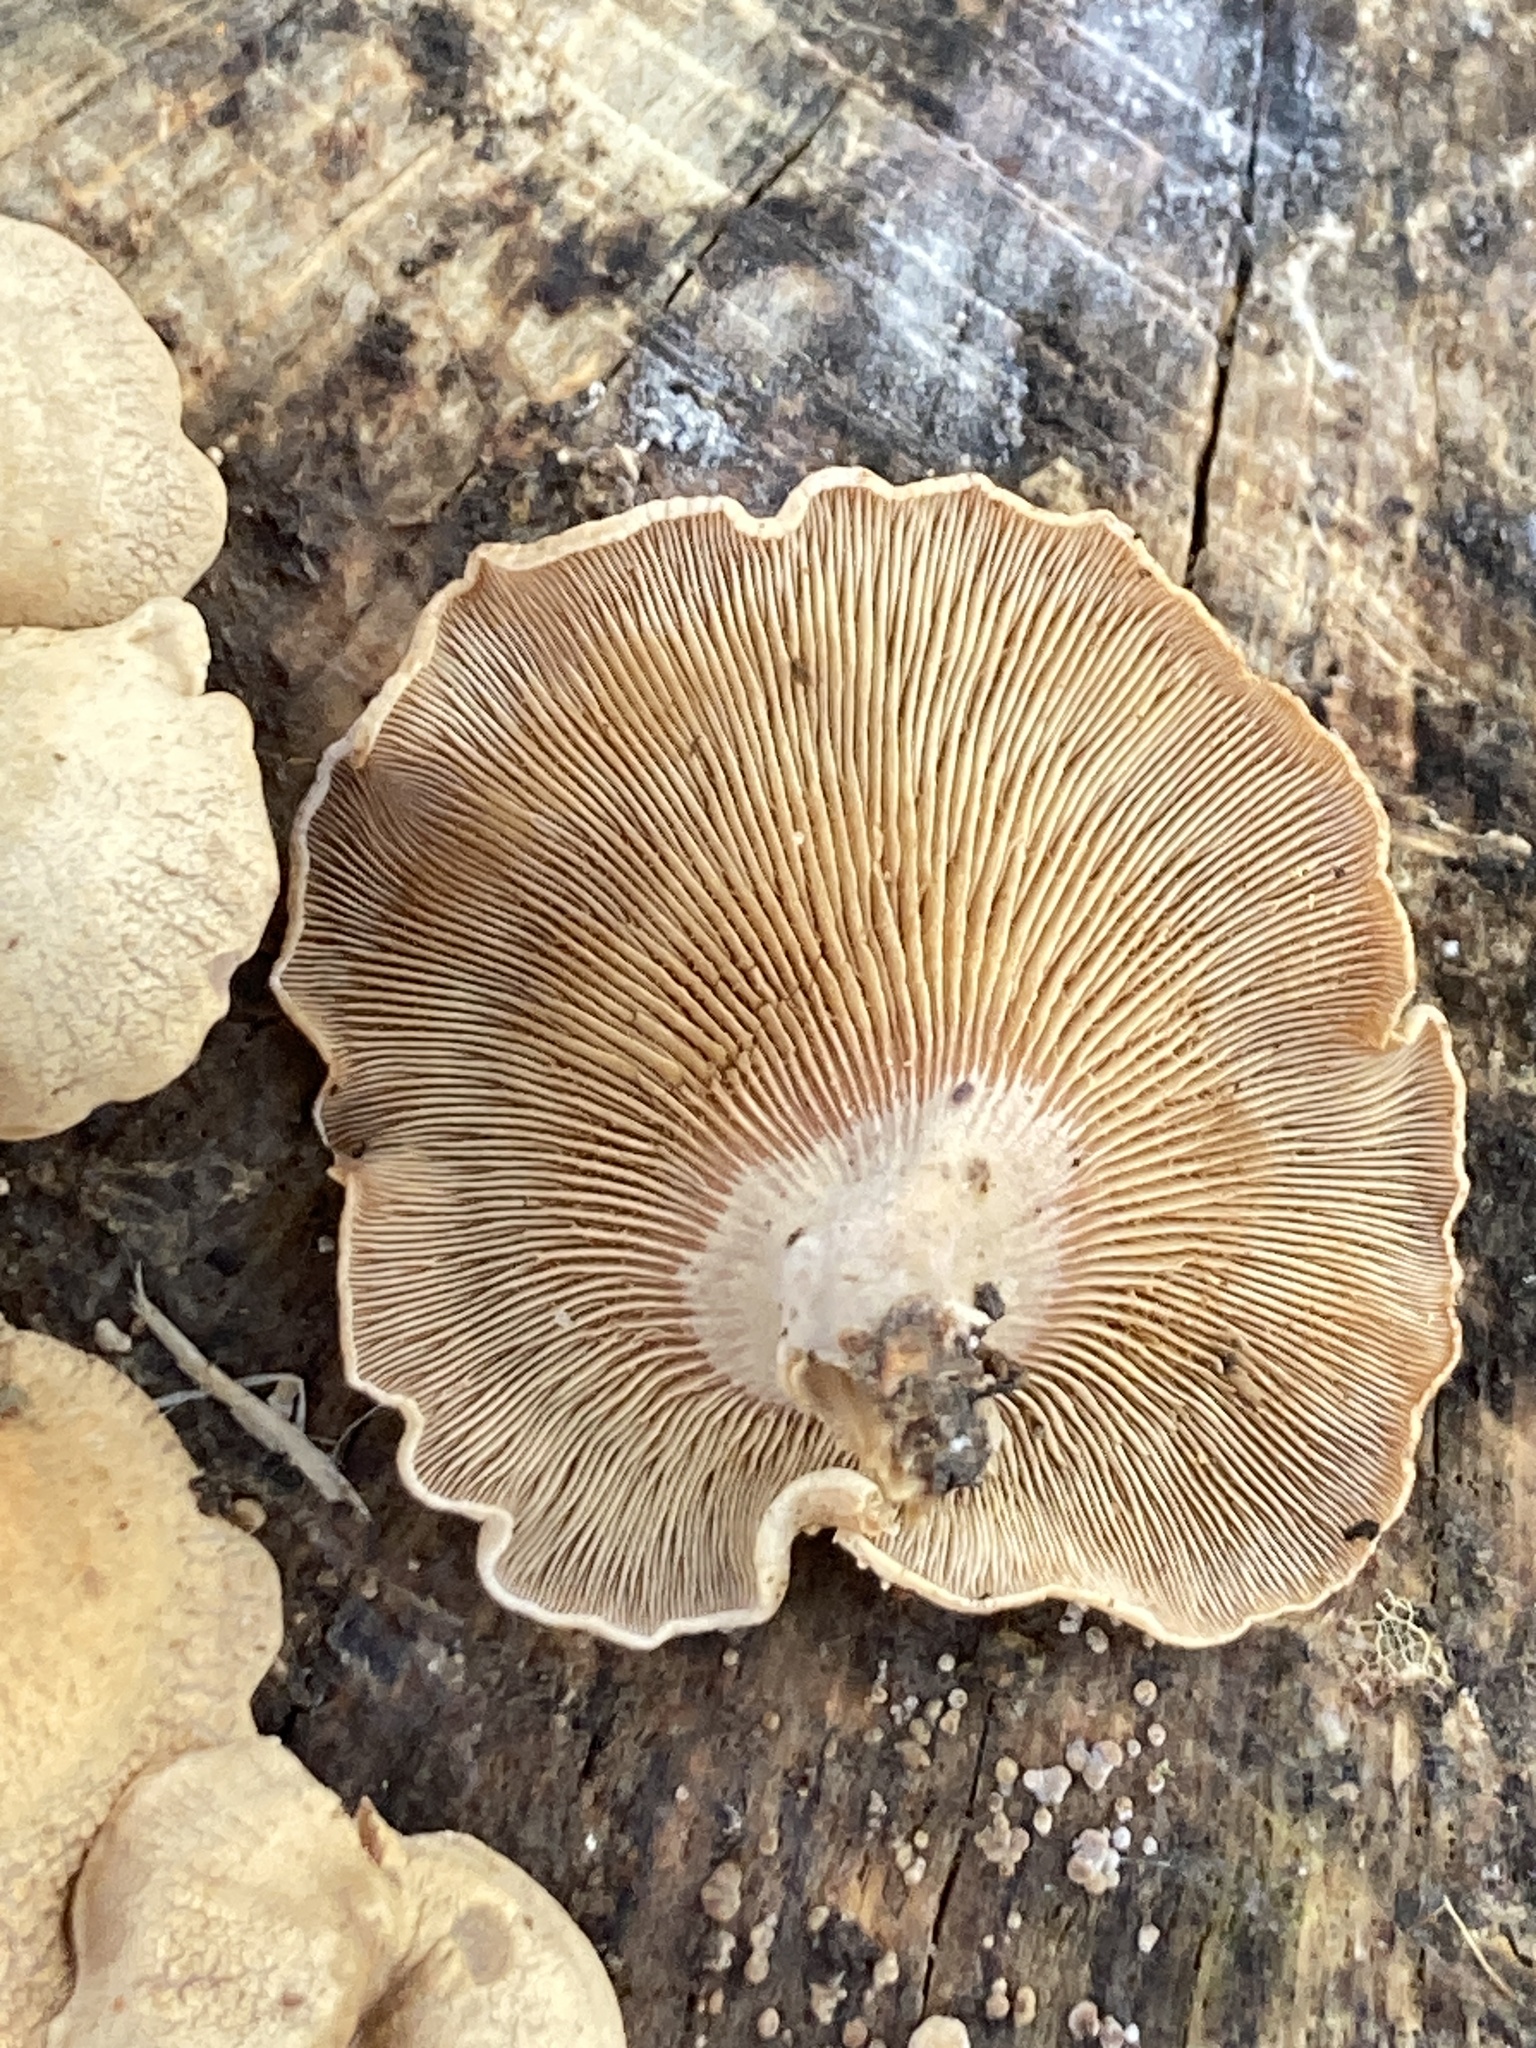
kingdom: Fungi
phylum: Basidiomycota
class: Agaricomycetes
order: Agaricales
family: Mycenaceae
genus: Panellus
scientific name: Panellus stipticus
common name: Bitter oysterling
